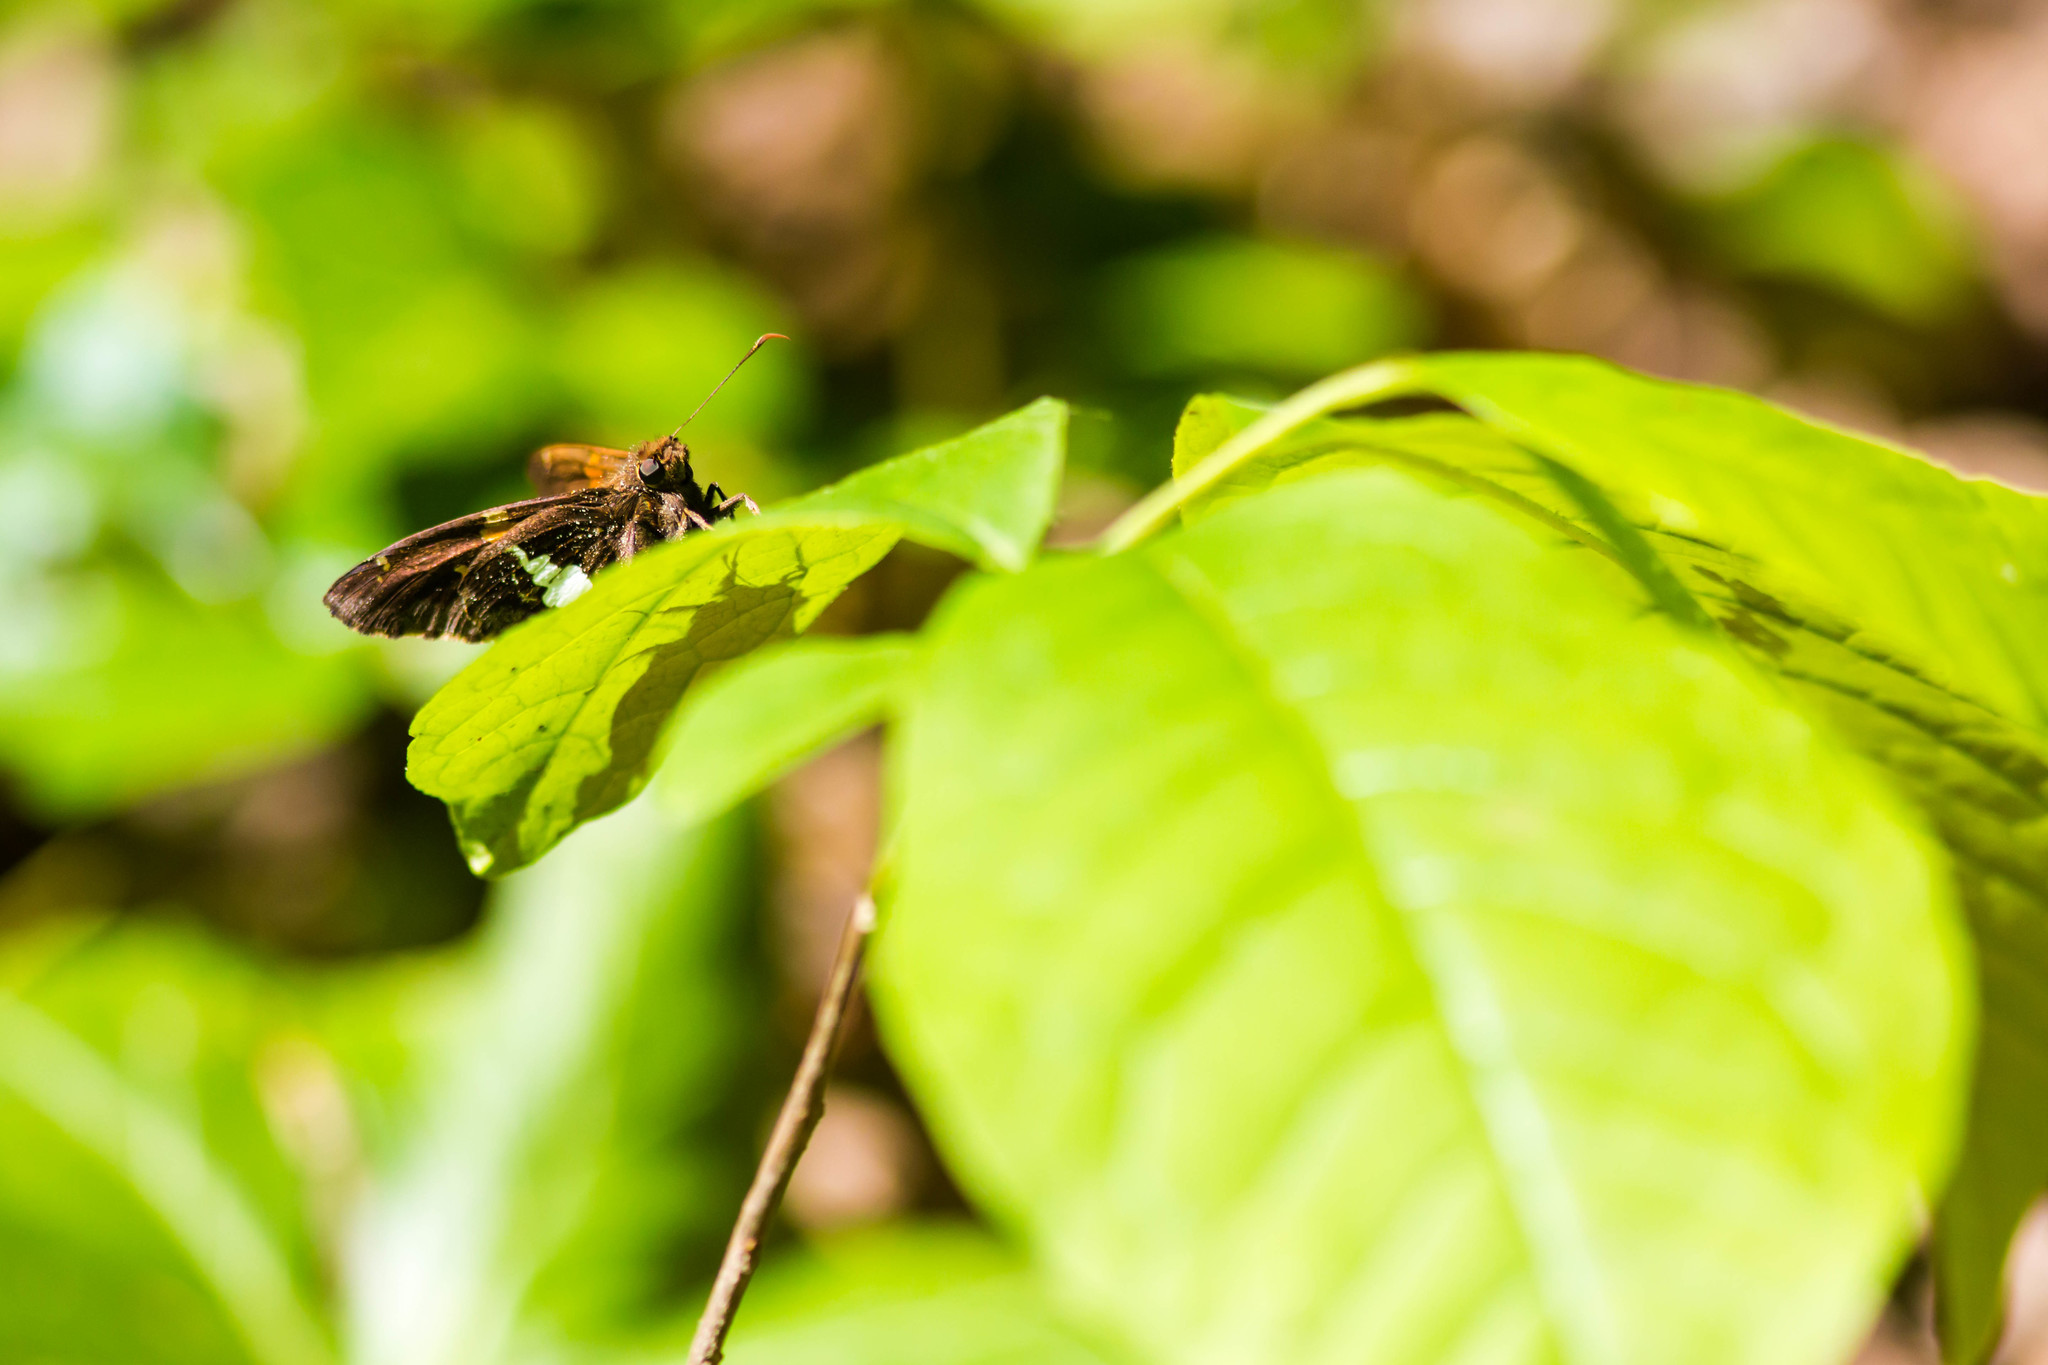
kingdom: Animalia
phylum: Arthropoda
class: Insecta
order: Lepidoptera
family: Hesperiidae
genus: Epargyreus
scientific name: Epargyreus clarus
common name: Silver-spotted skipper
